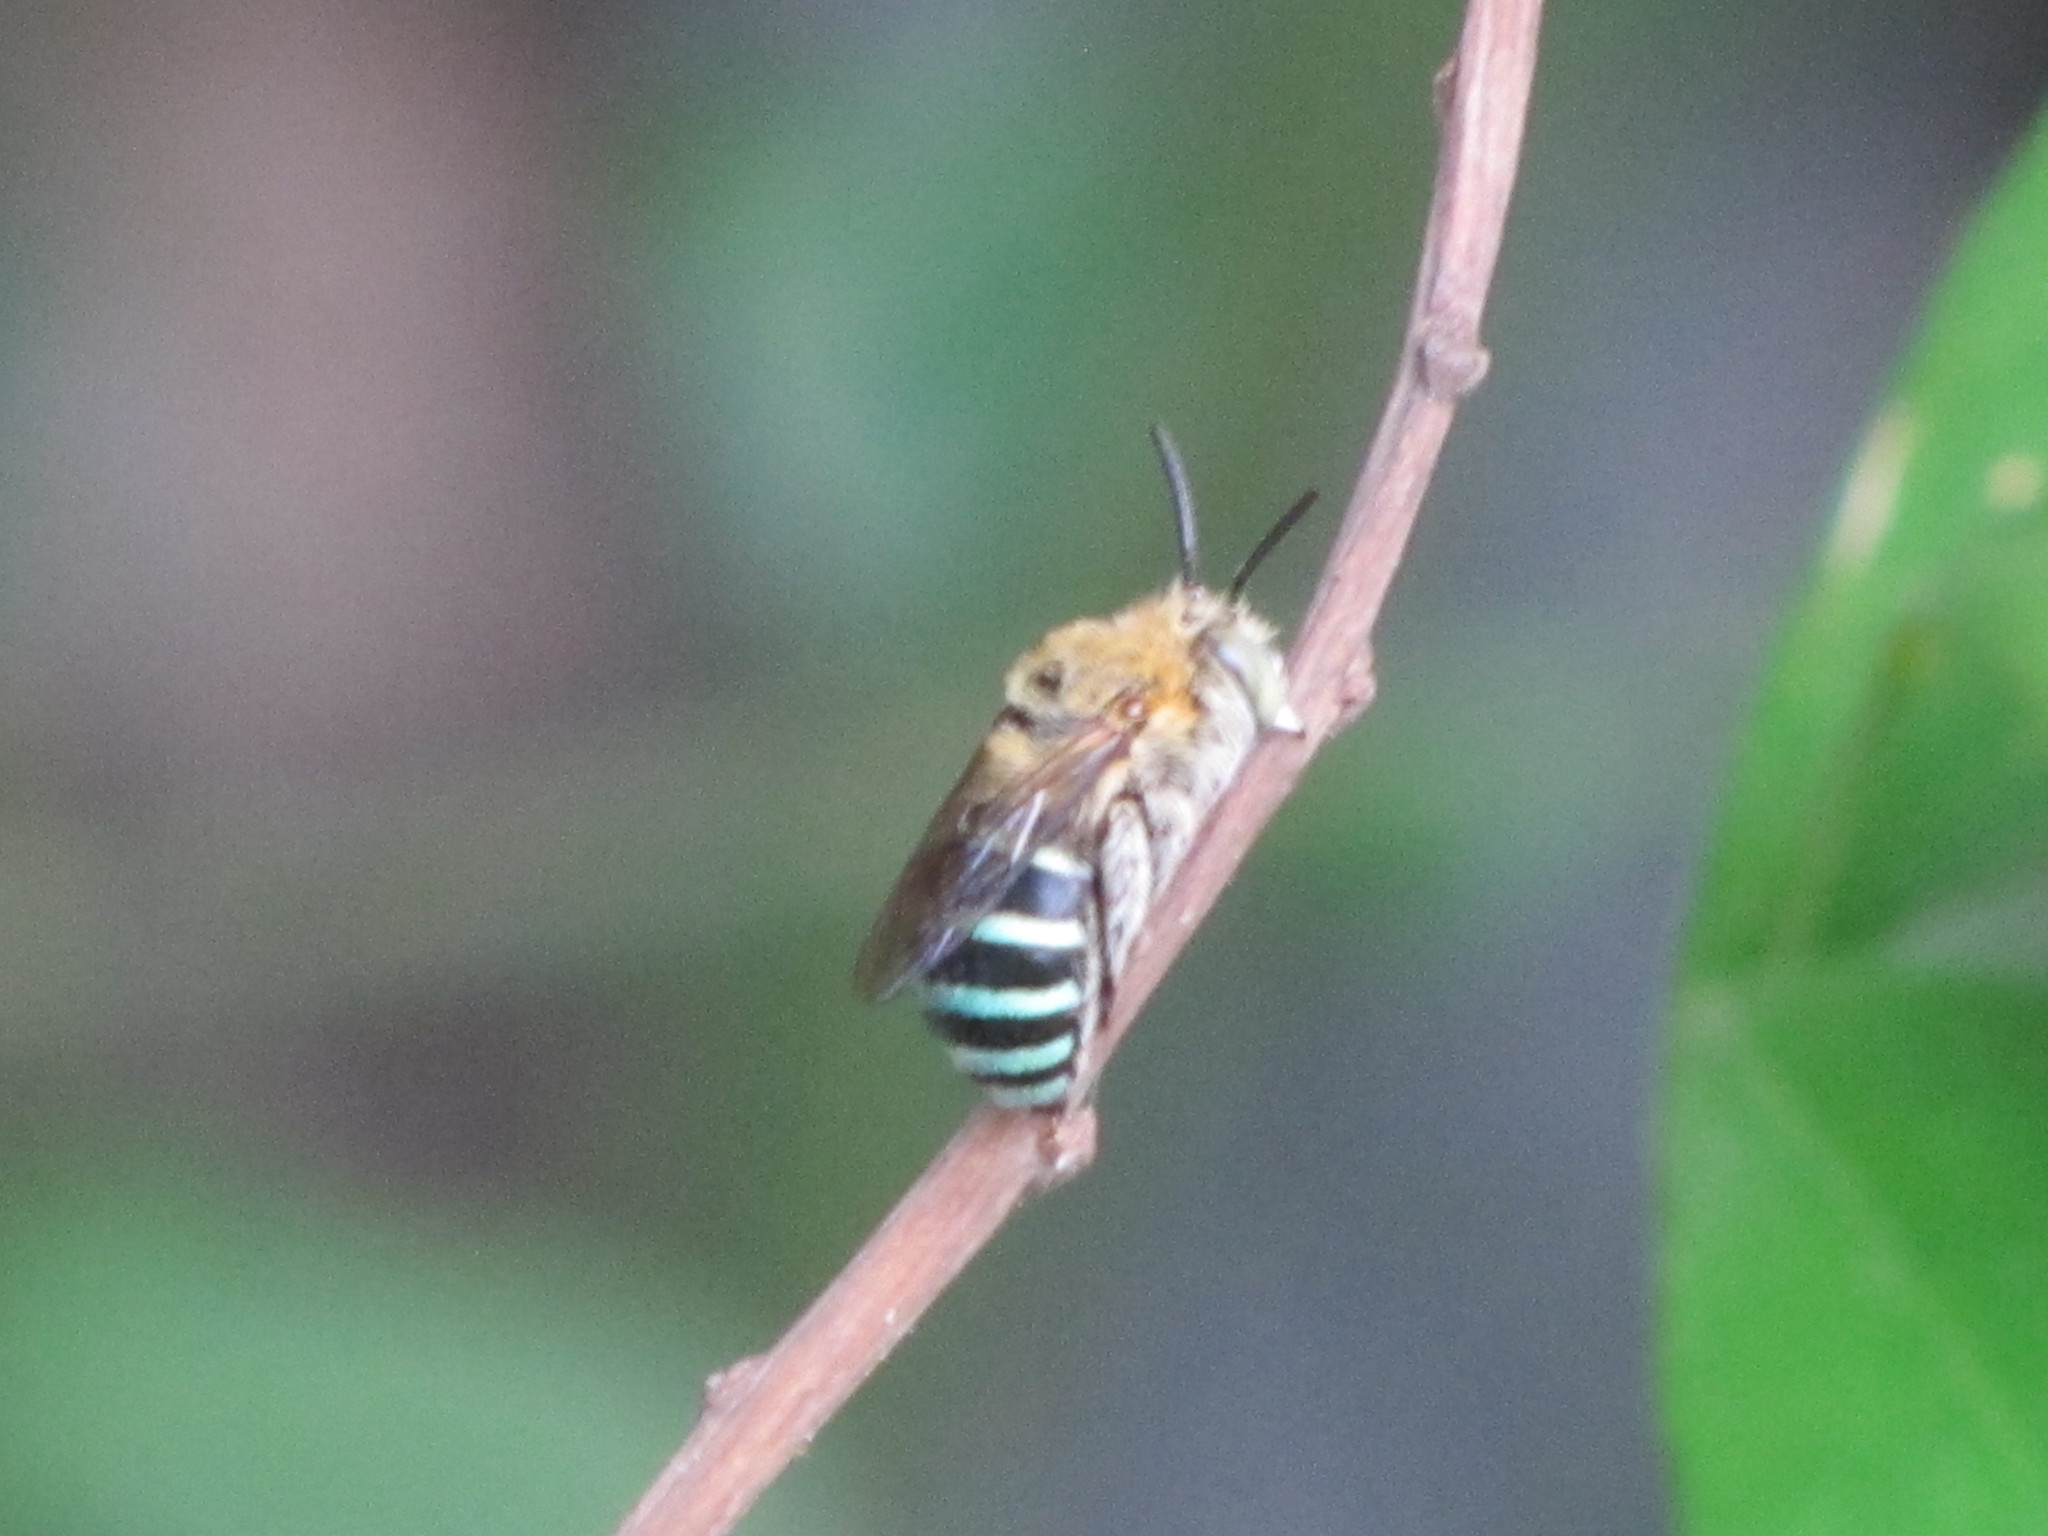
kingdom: Animalia
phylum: Arthropoda
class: Insecta
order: Hymenoptera
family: Apidae
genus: Amegilla
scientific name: Amegilla calceifera
